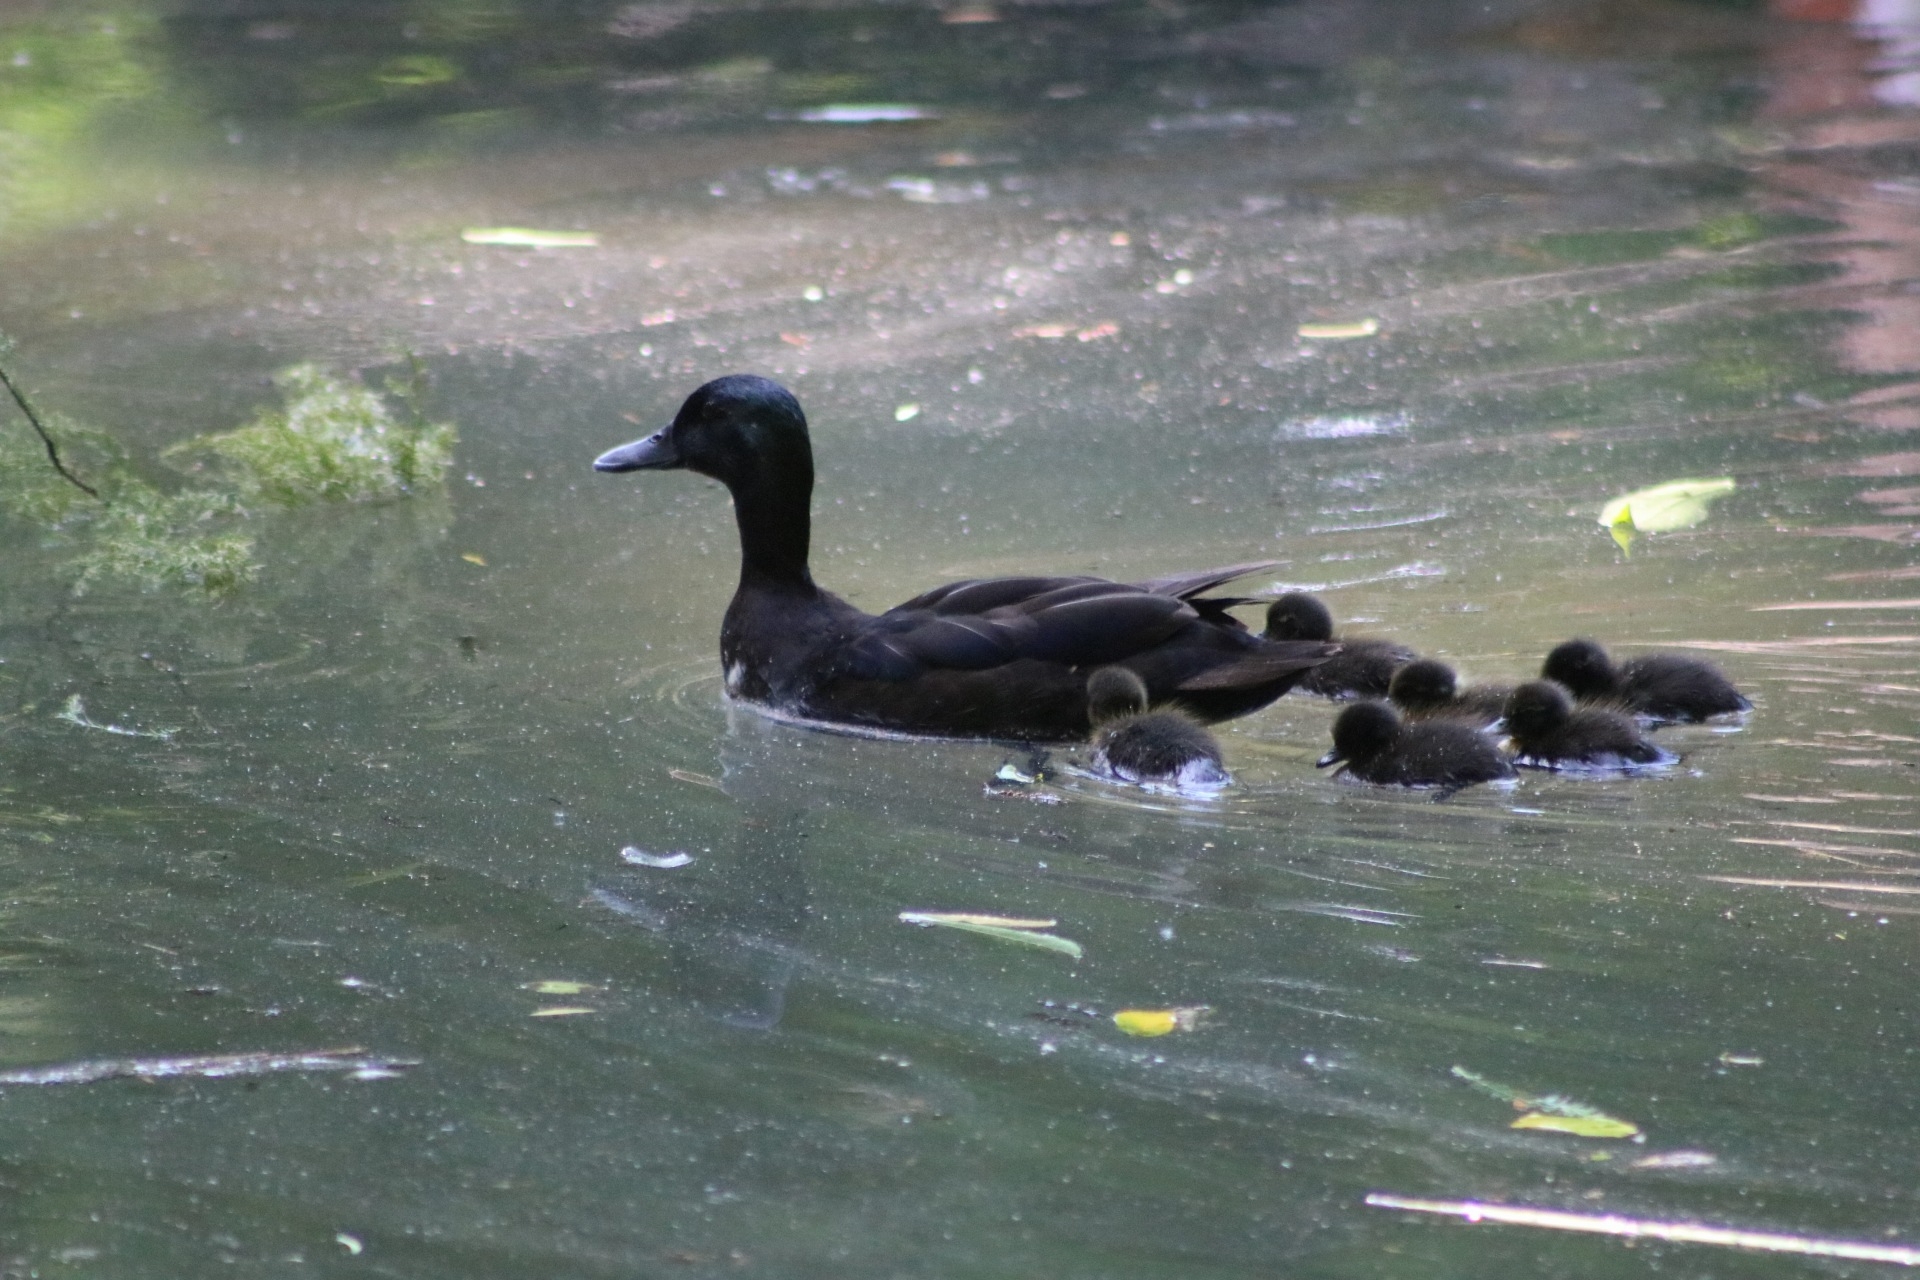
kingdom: Animalia
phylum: Chordata
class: Aves
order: Anseriformes
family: Anatidae
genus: Anas
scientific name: Anas platyrhynchos
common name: Mallard
